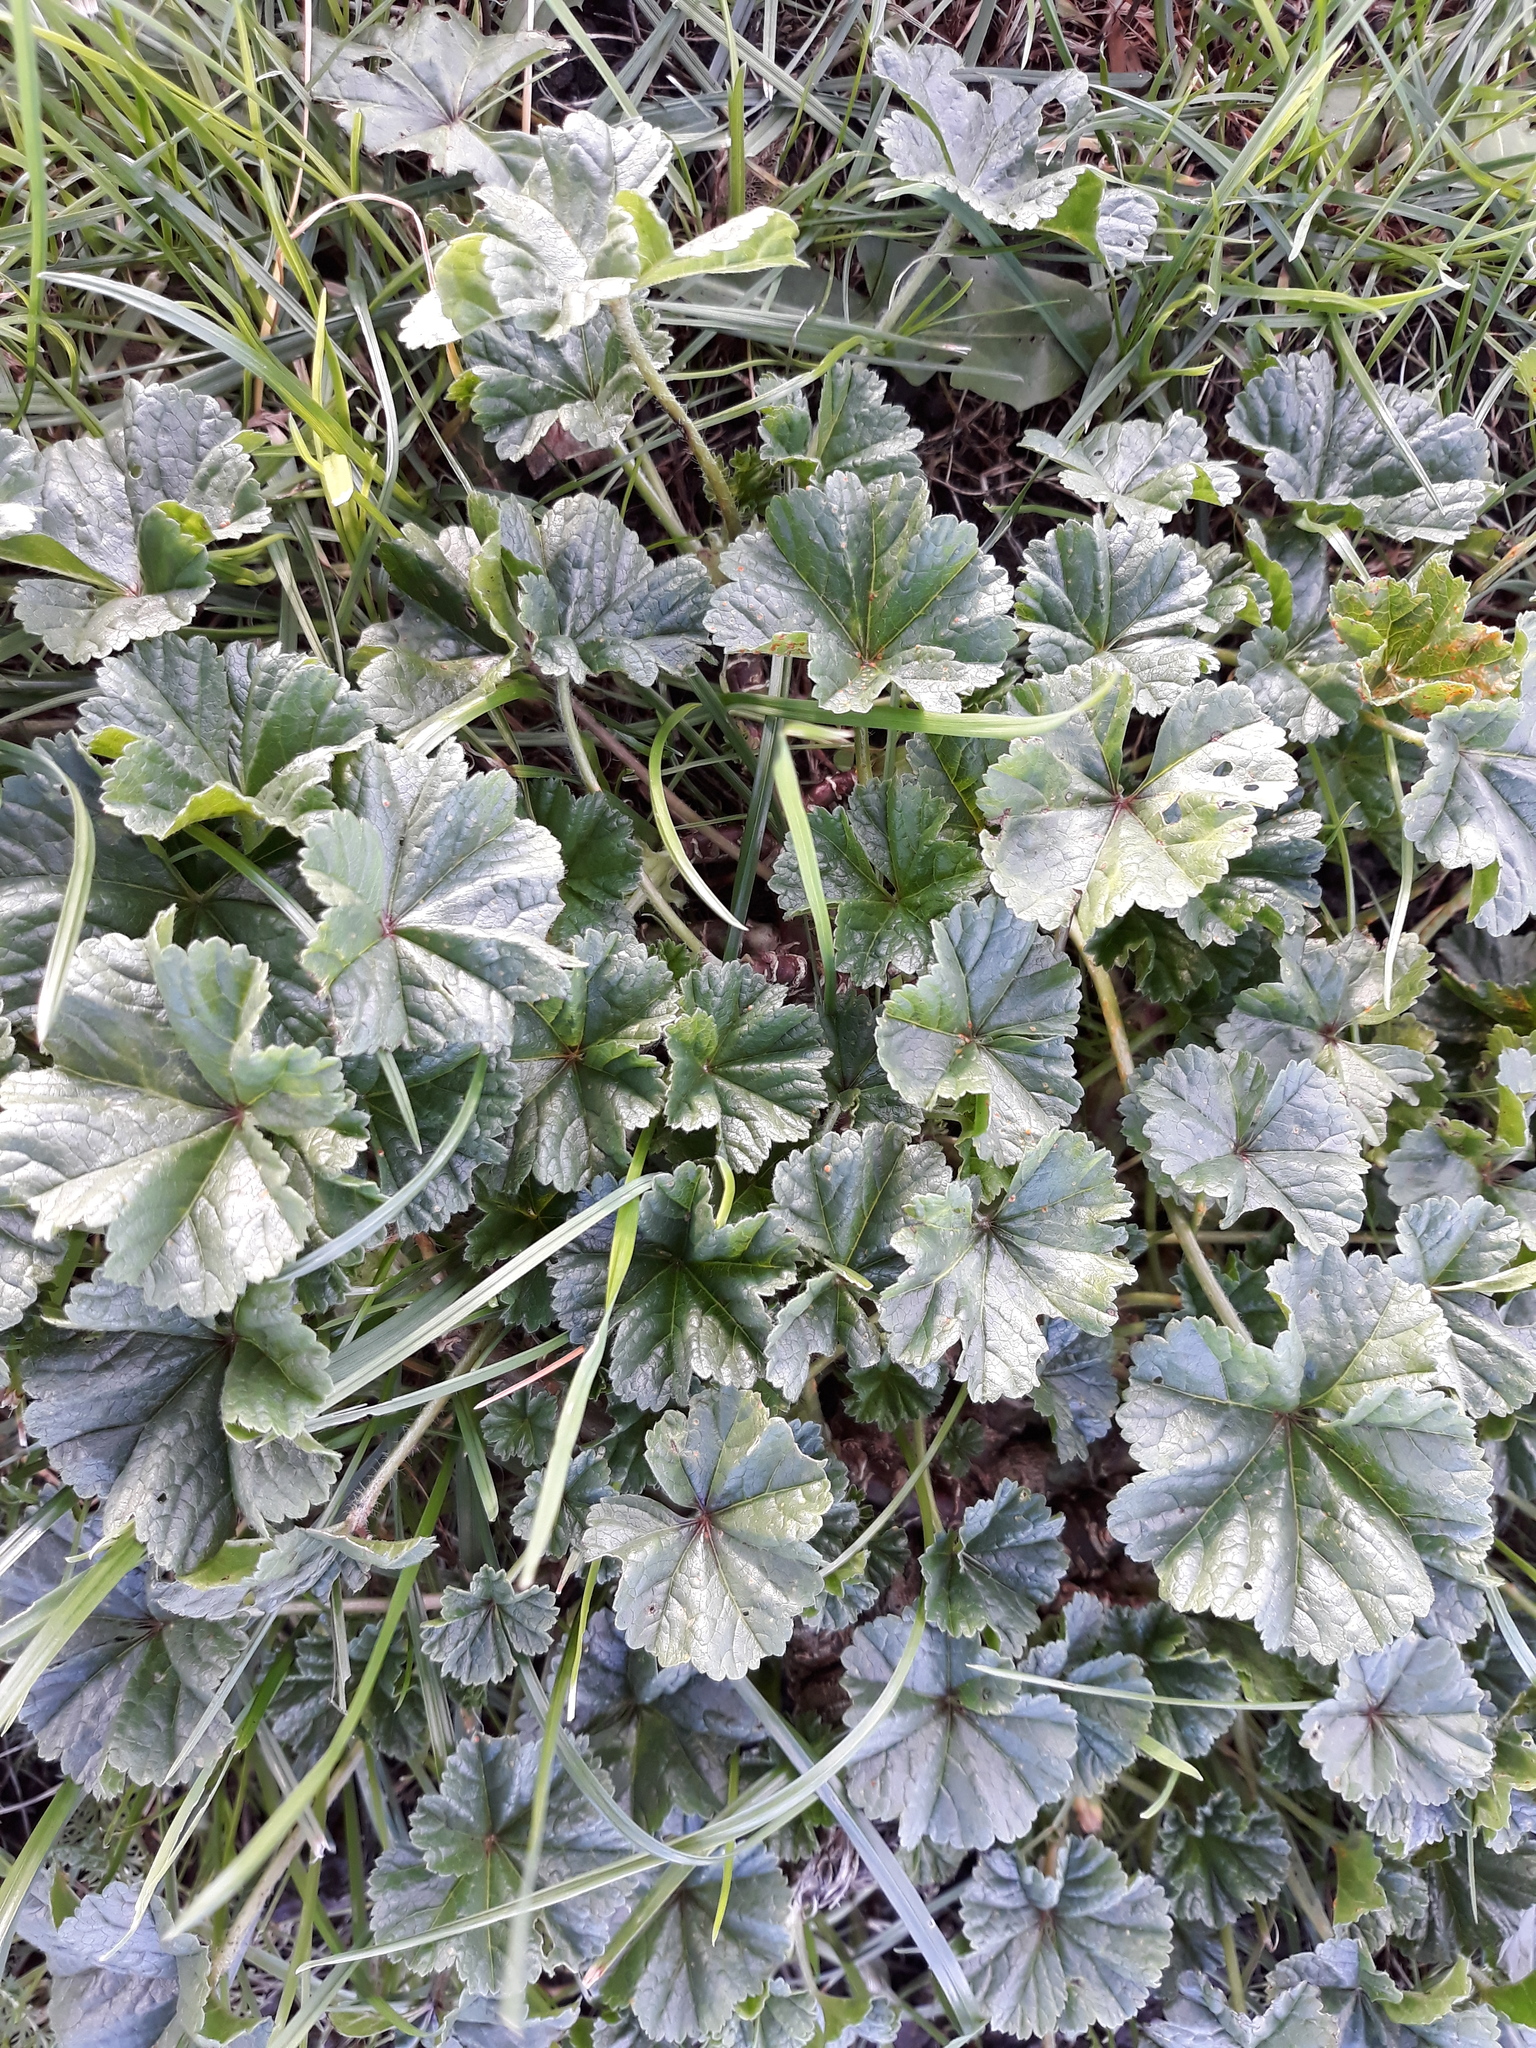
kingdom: Plantae
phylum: Tracheophyta
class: Magnoliopsida
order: Malvales
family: Malvaceae
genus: Malva
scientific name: Malva sylvestris
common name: Common mallow
